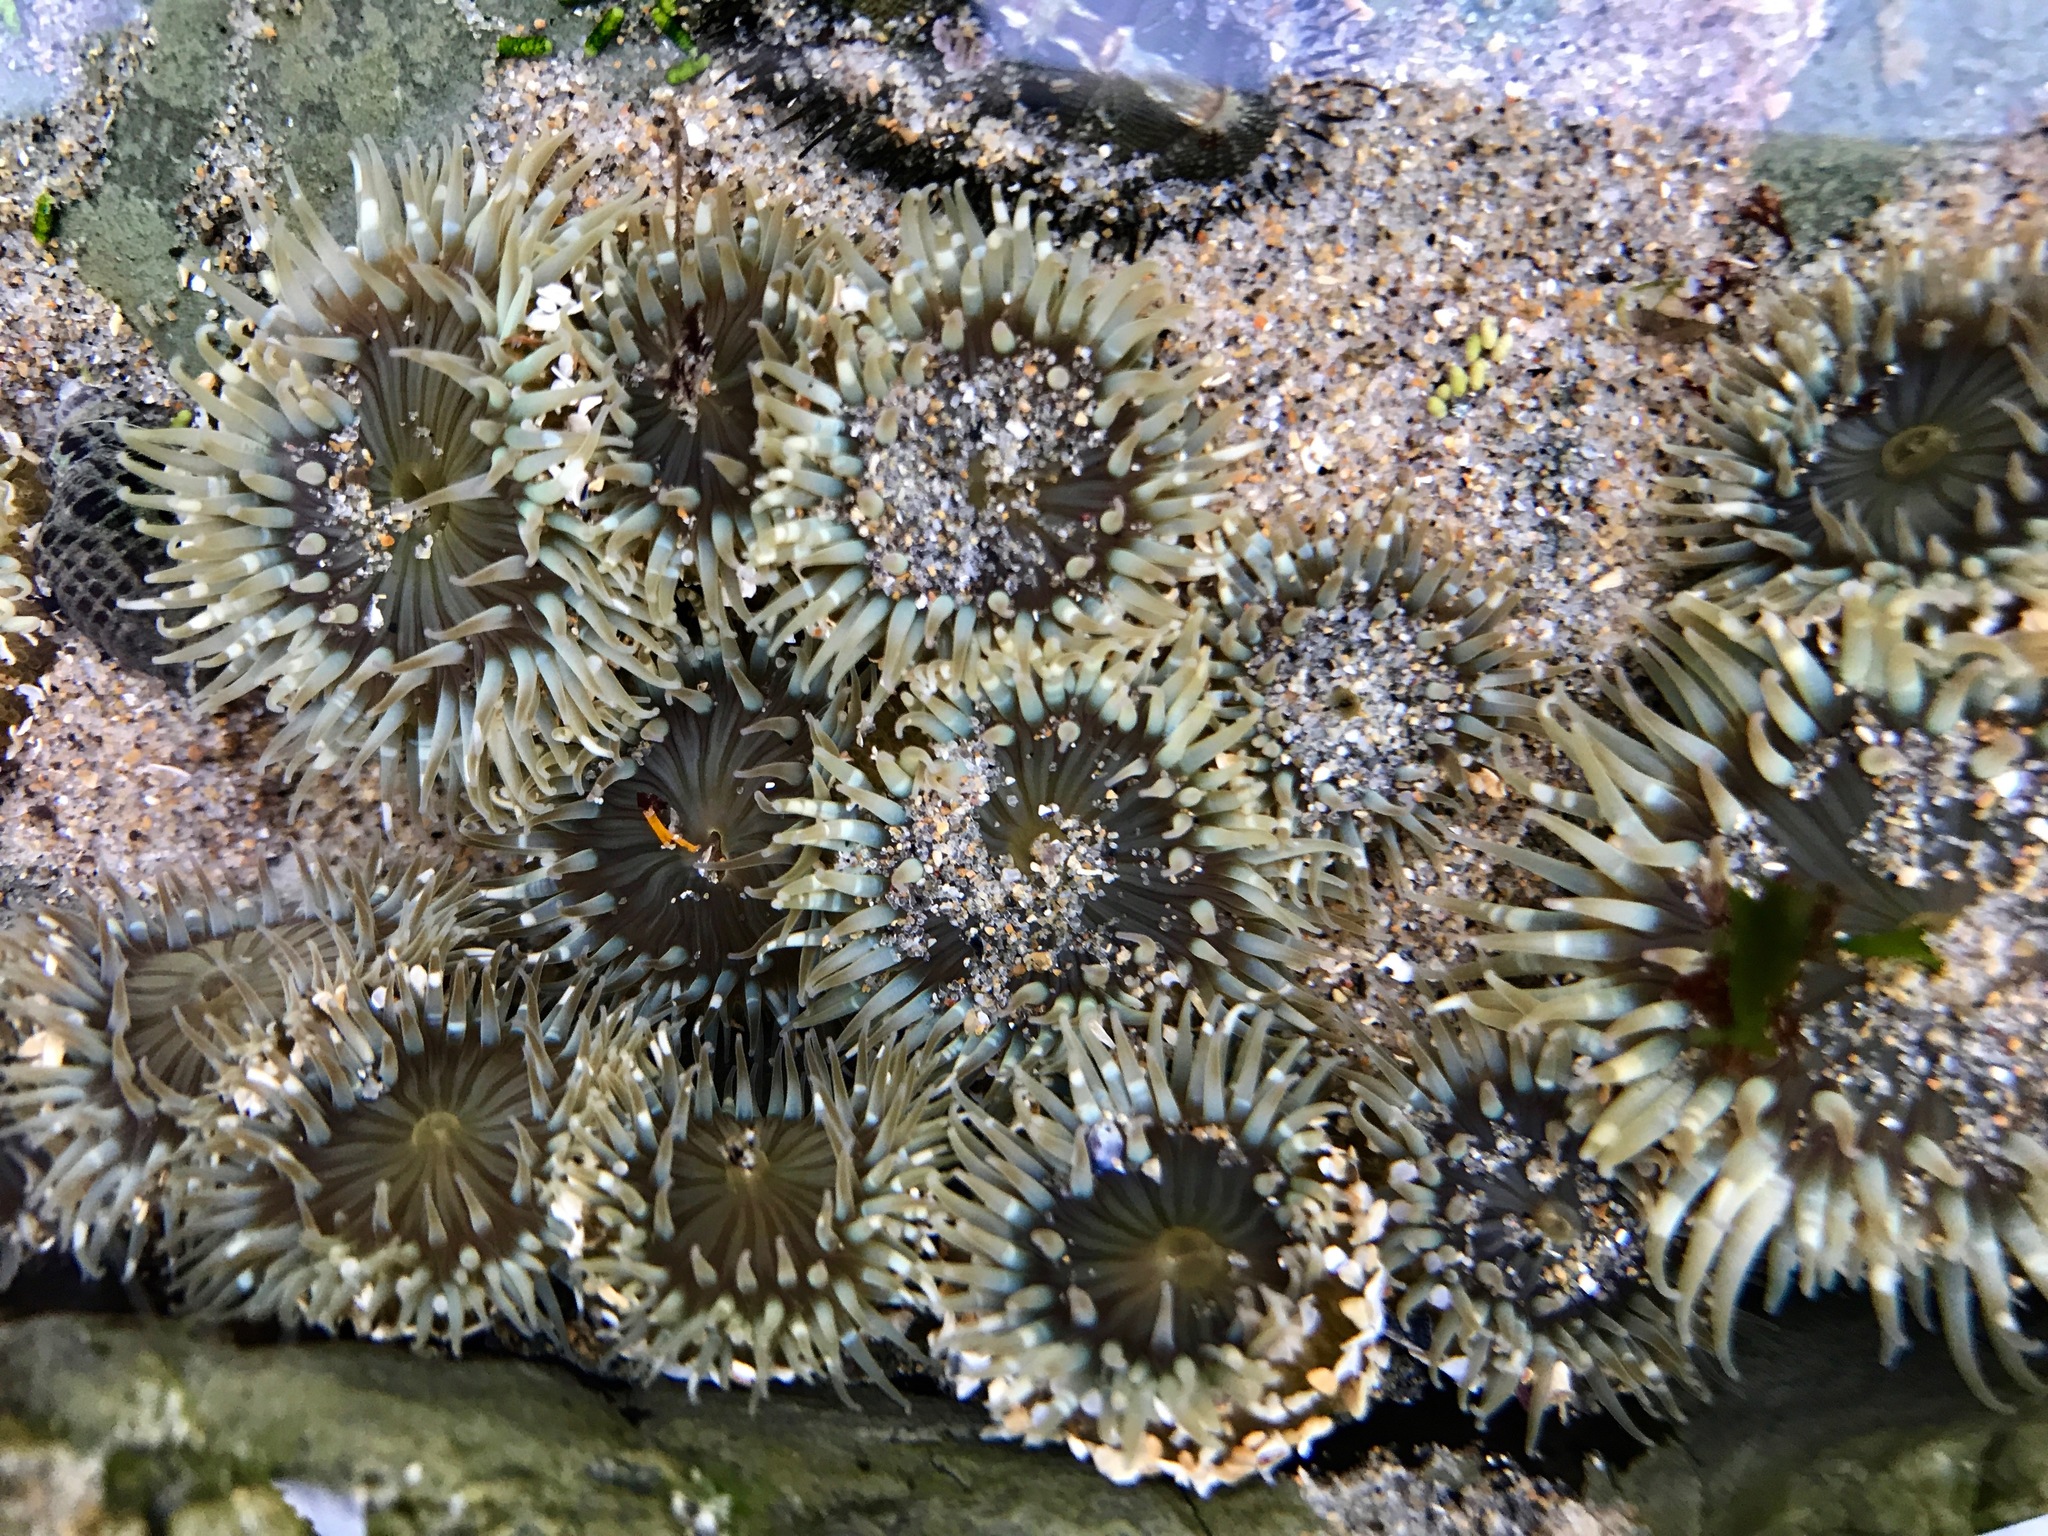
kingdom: Animalia
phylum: Cnidaria
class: Anthozoa
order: Actiniaria
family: Actiniidae
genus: Anthopleura
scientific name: Anthopleura elegantissima
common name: Clonal anemone
